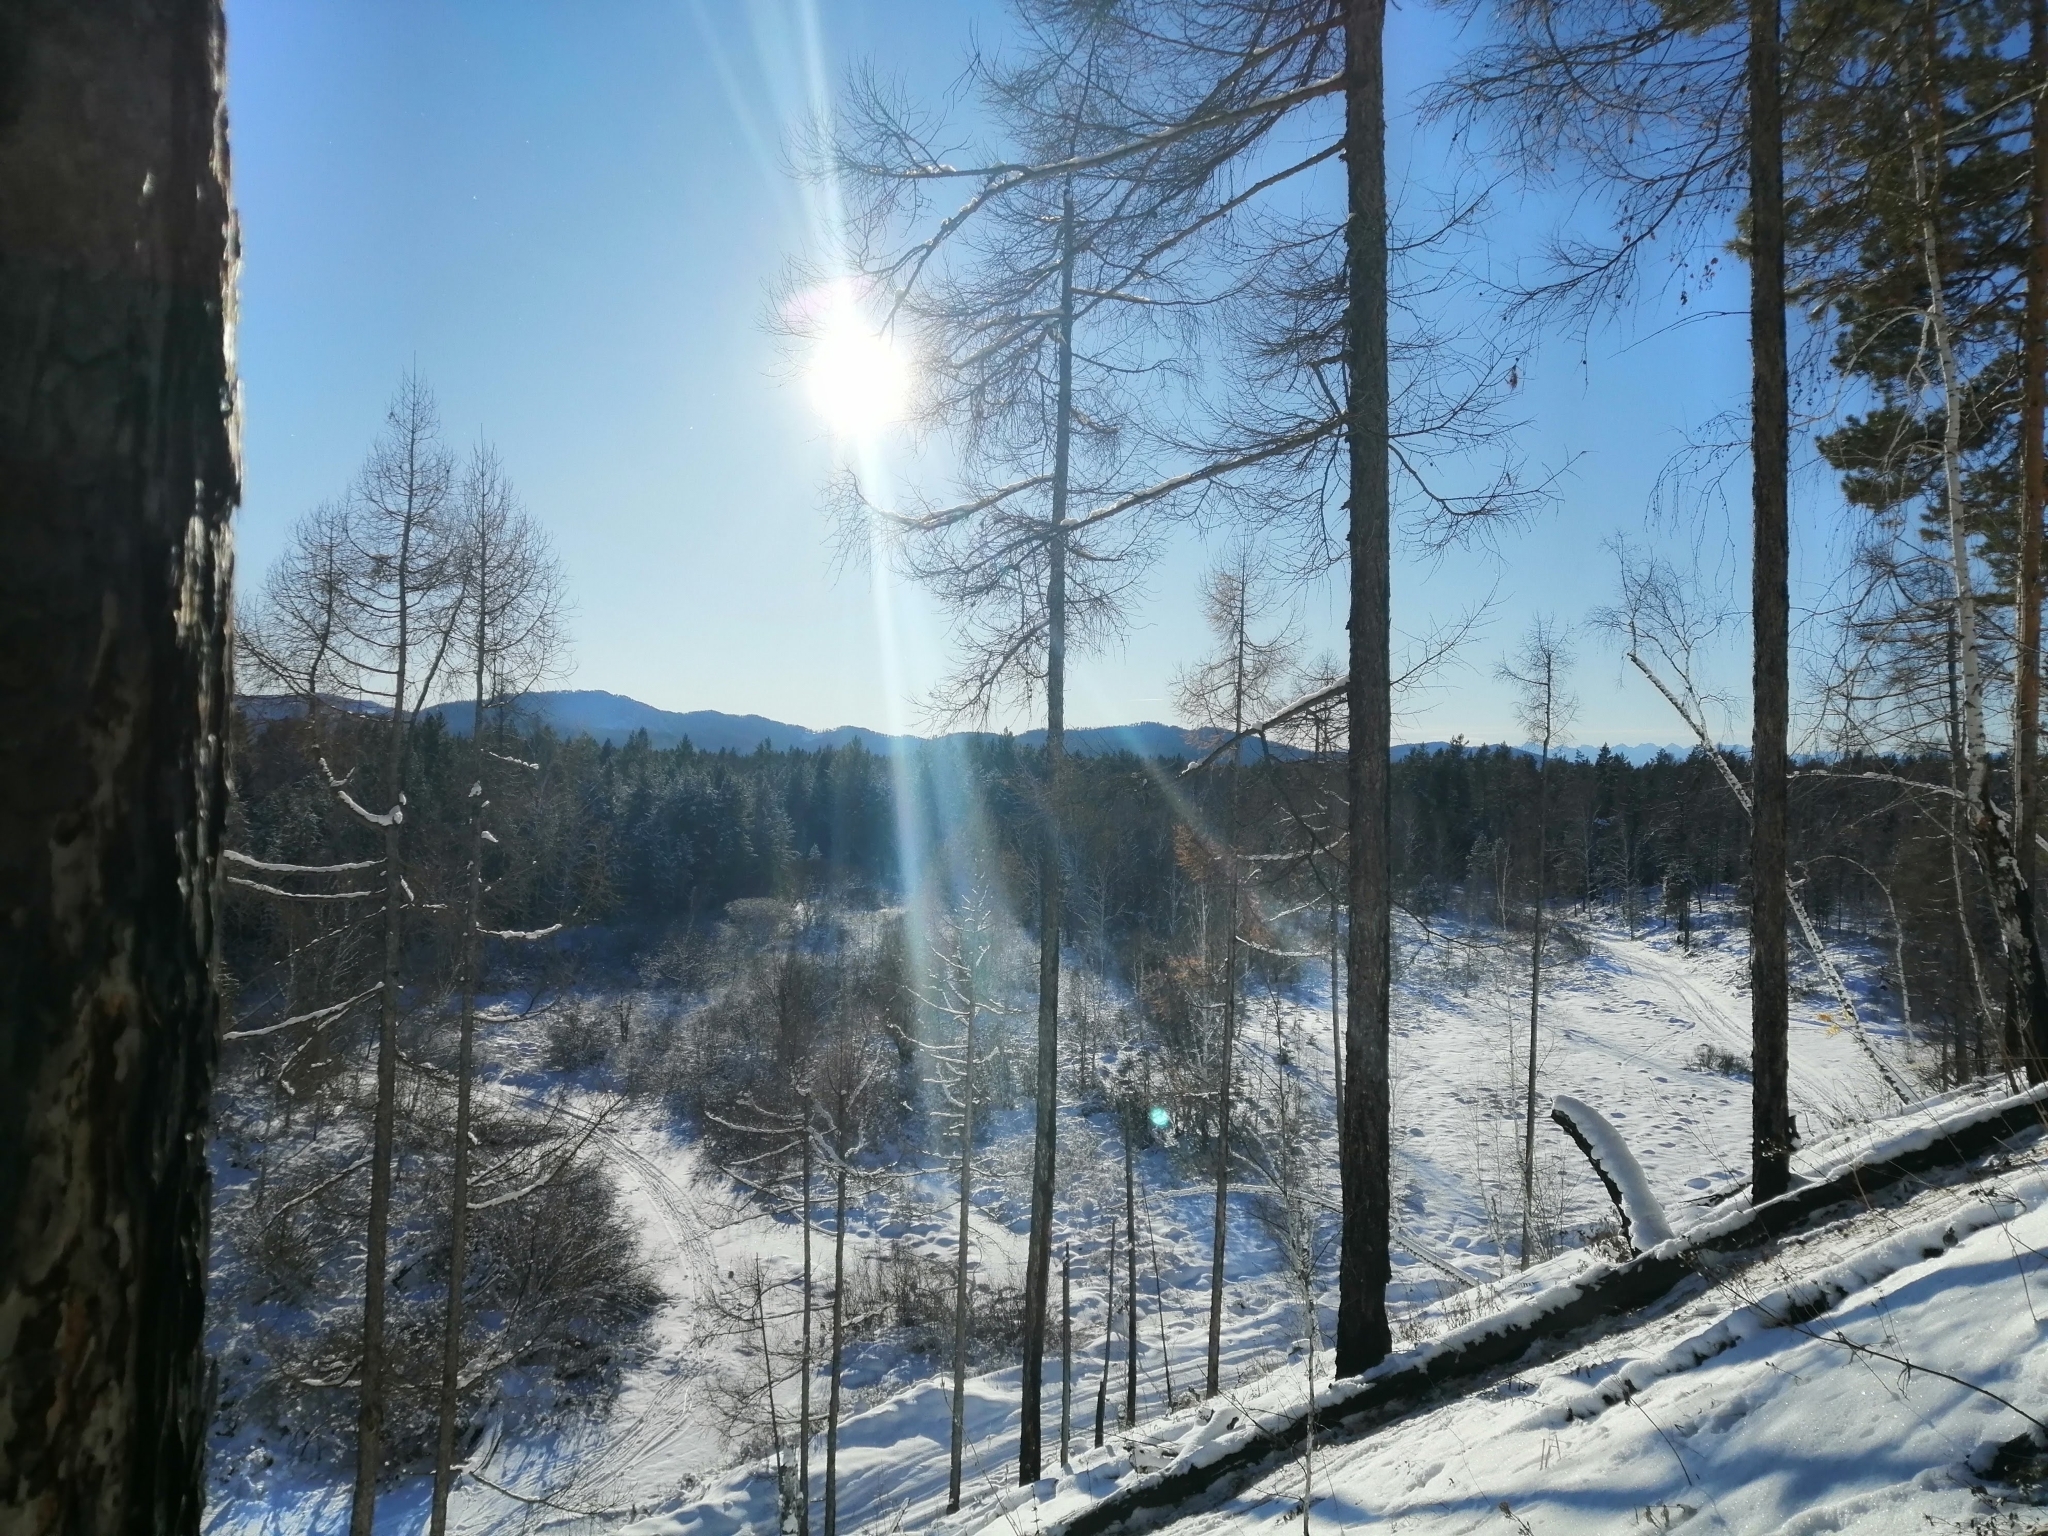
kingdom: Plantae
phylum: Tracheophyta
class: Pinopsida
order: Pinales
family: Pinaceae
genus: Larix
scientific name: Larix sibirica
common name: Siberian larch
